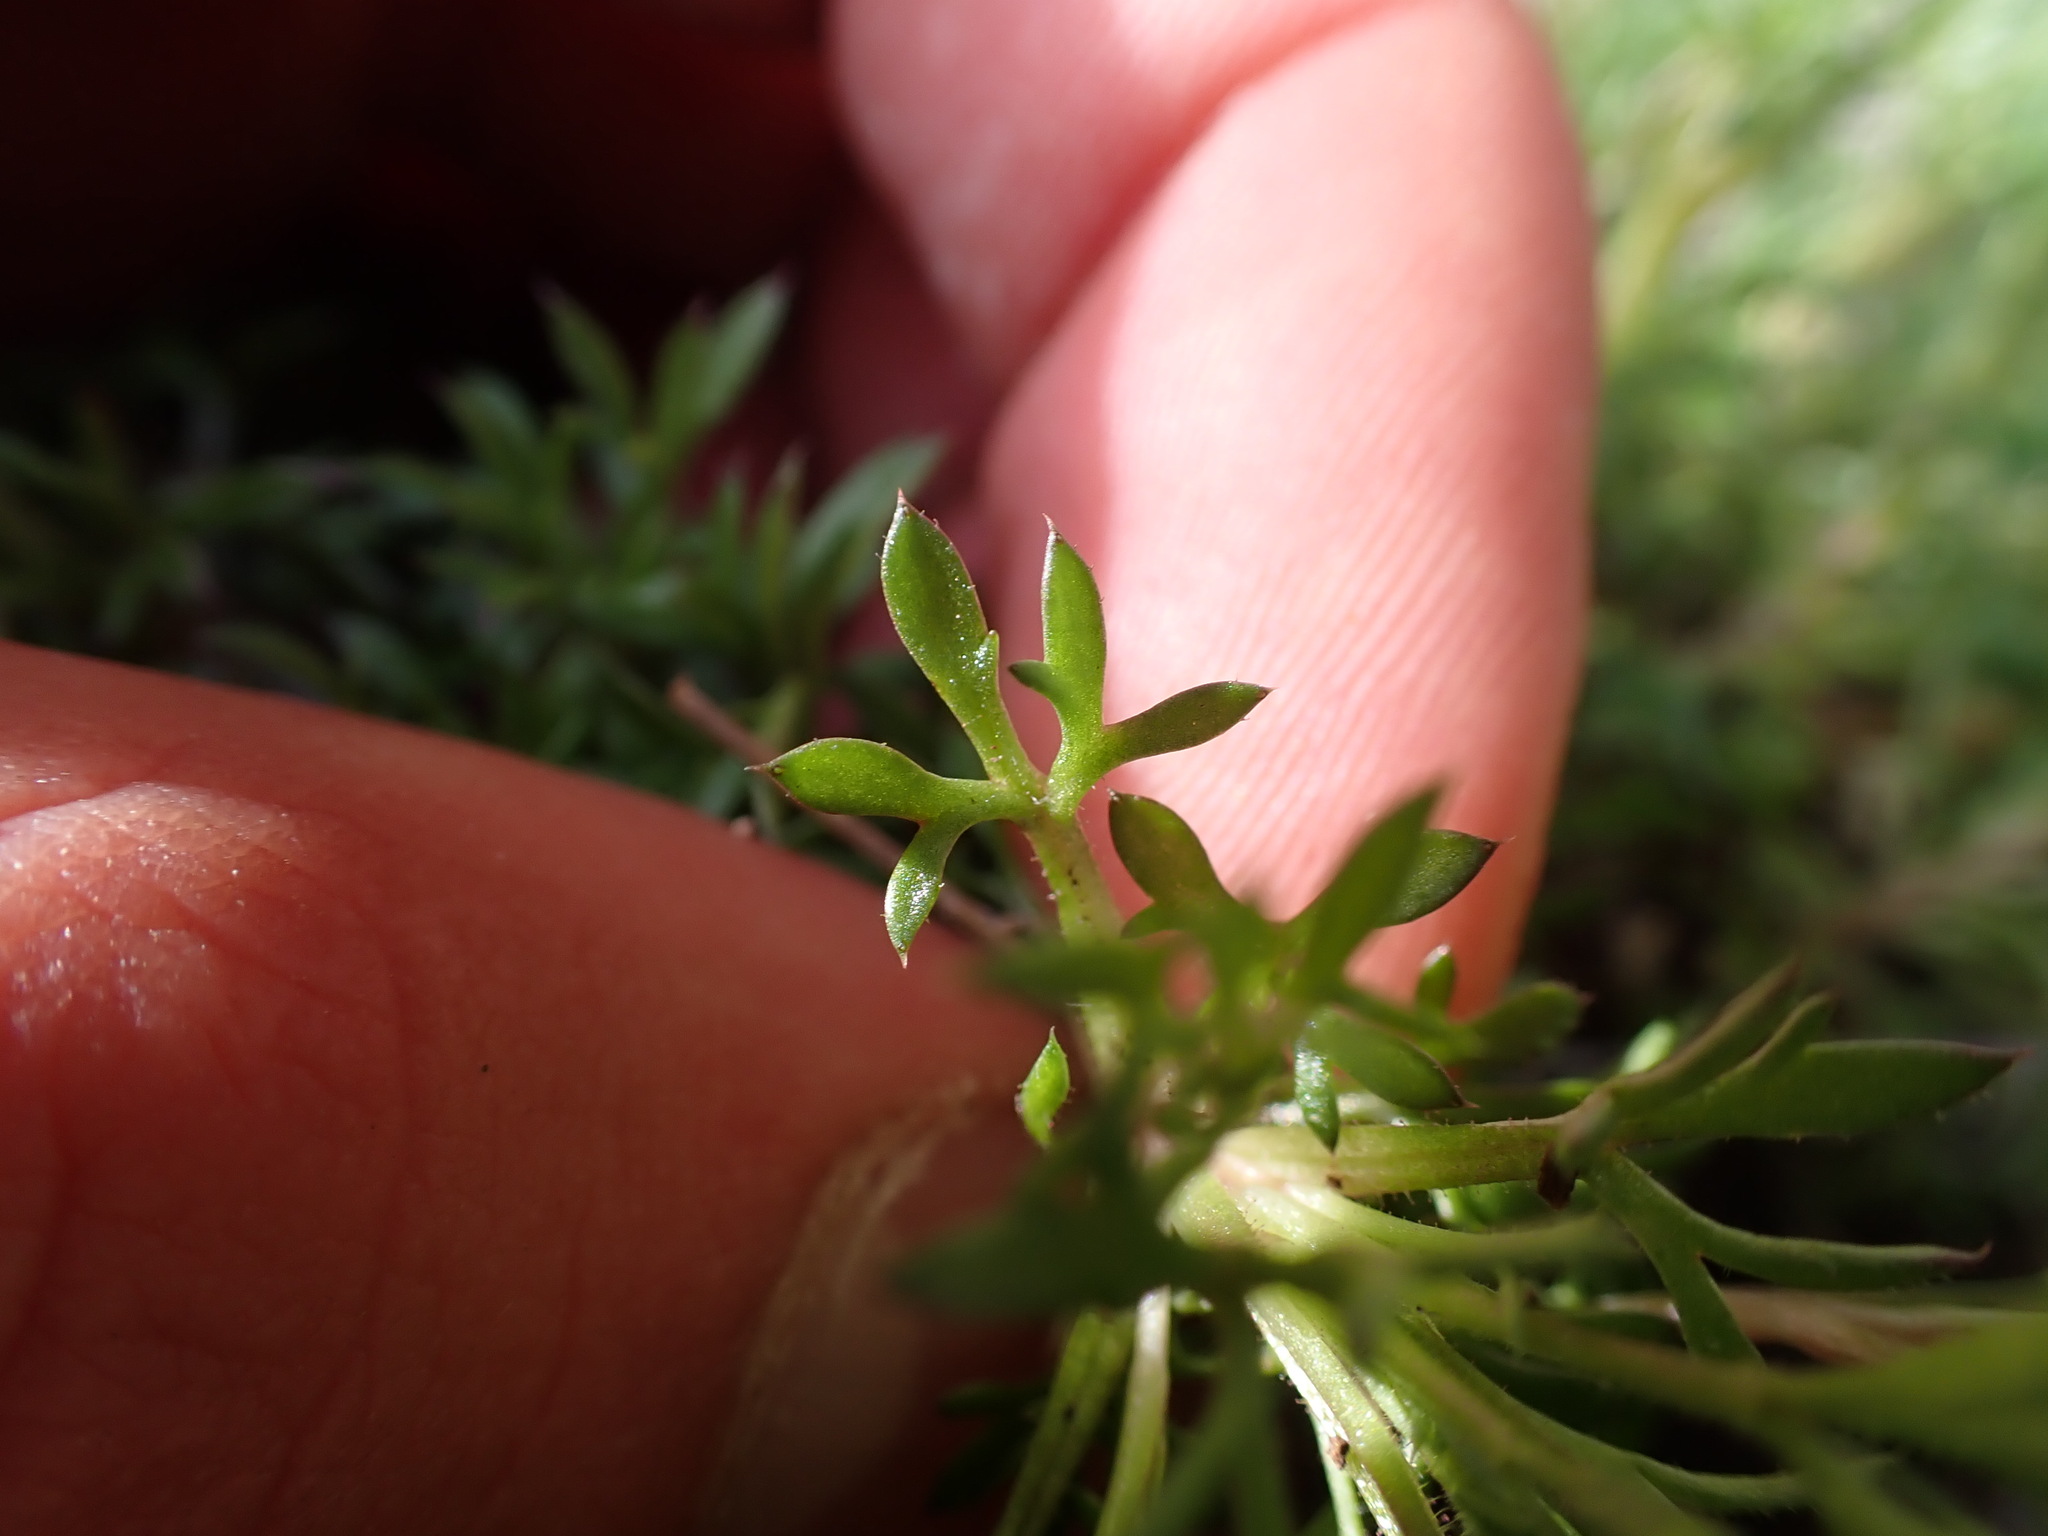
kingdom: Plantae
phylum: Tracheophyta
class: Magnoliopsida
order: Saxifragales
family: Saxifragaceae
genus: Saxifraga
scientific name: Saxifraga fragosoi
